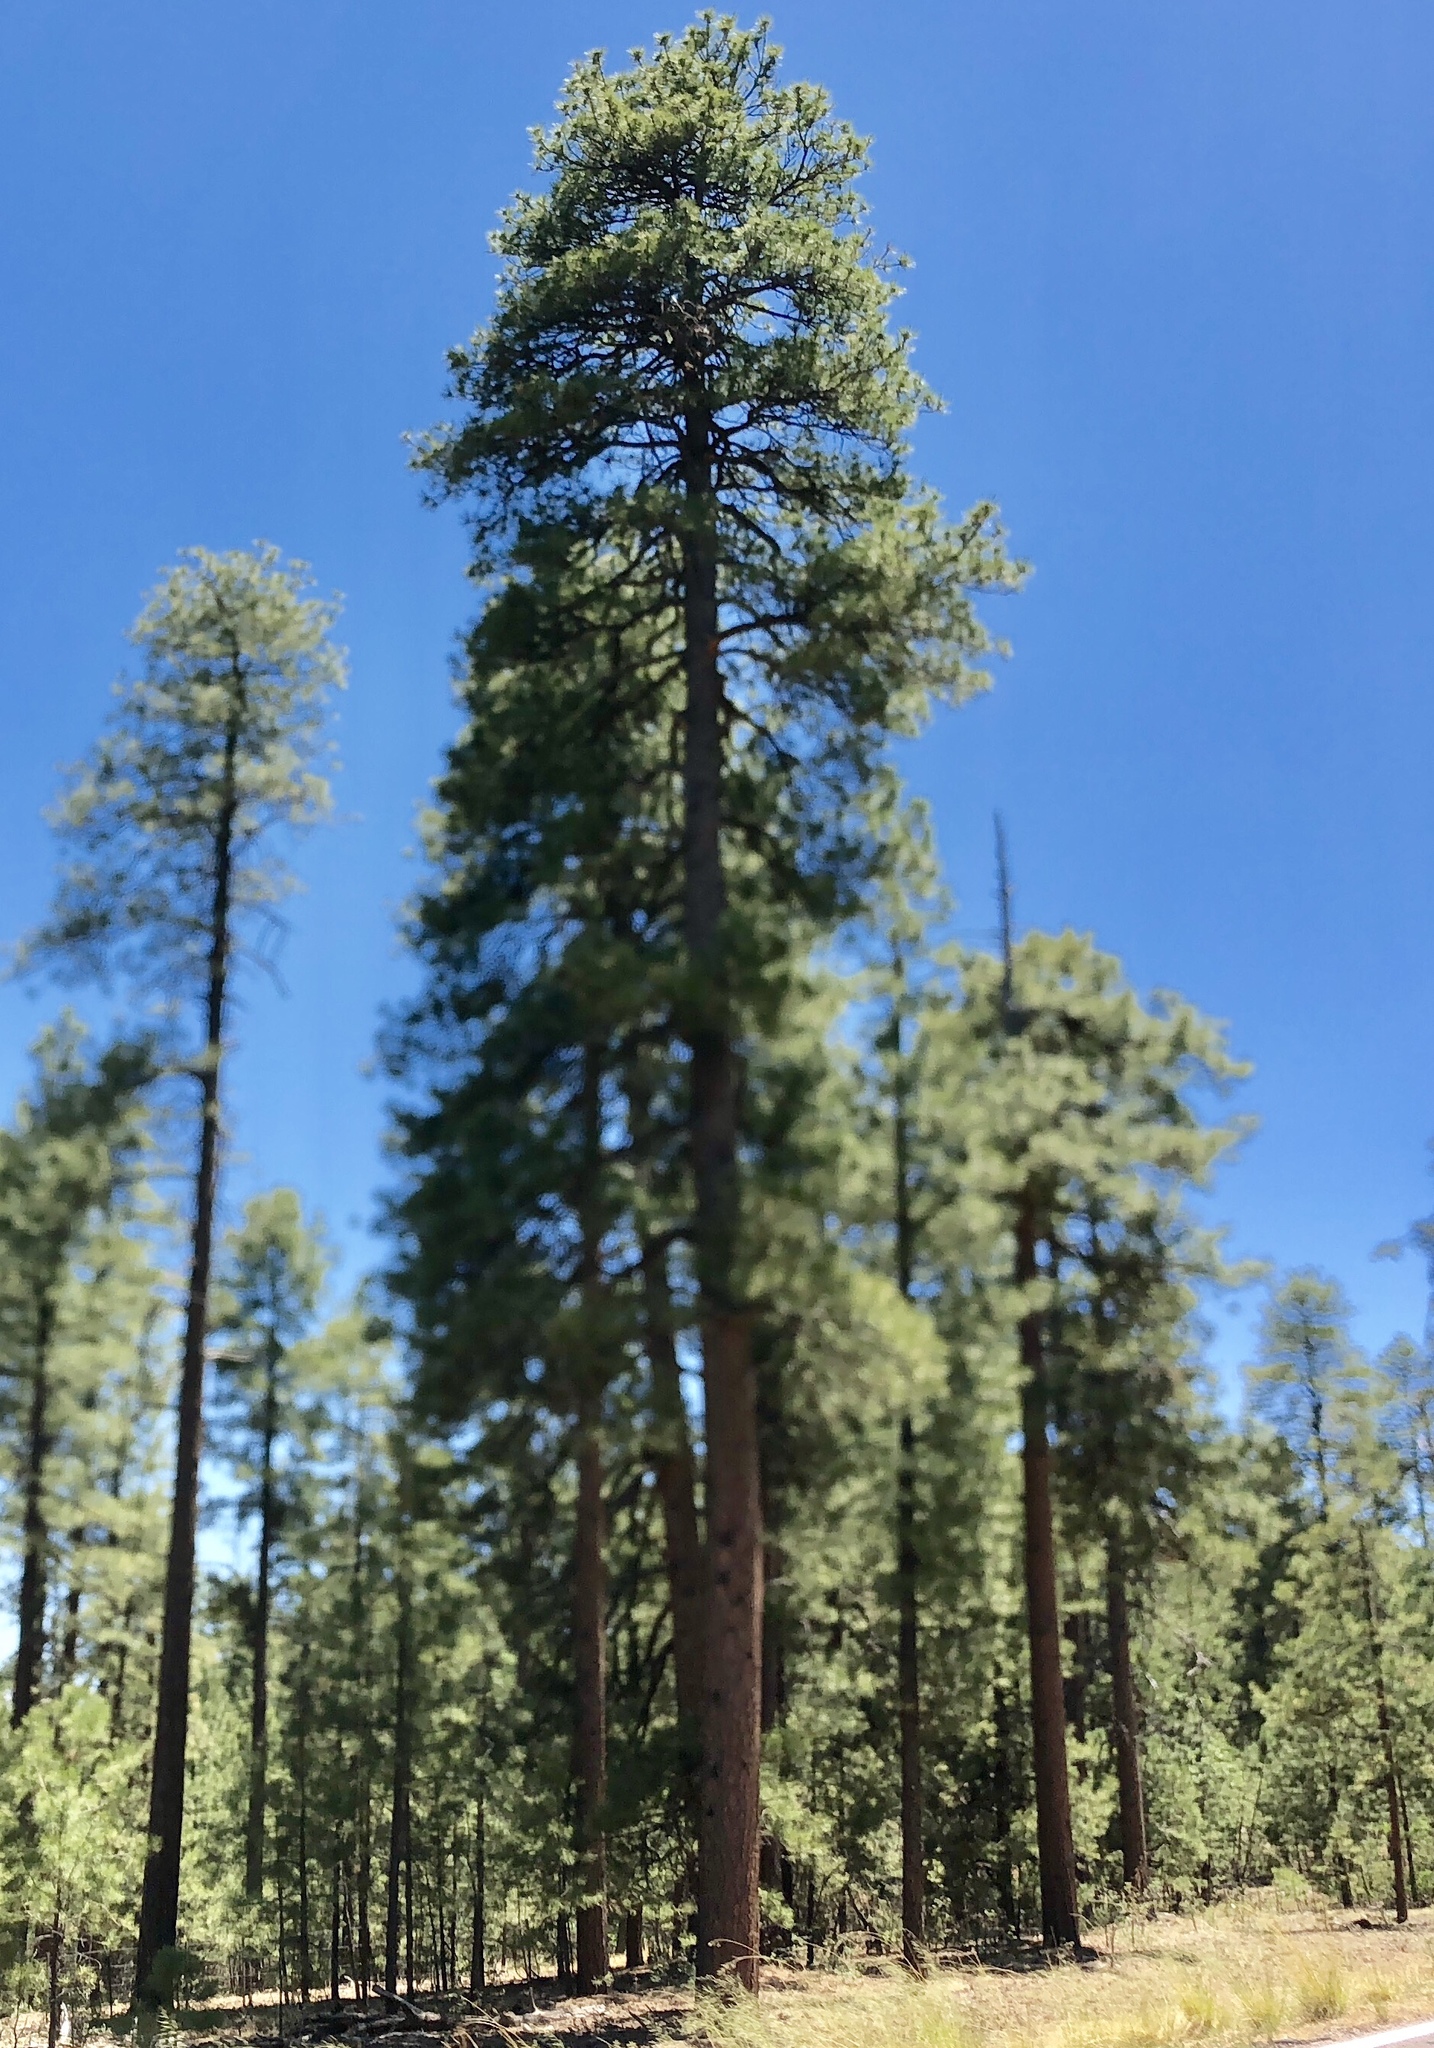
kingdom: Plantae
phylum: Tracheophyta
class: Pinopsida
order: Pinales
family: Pinaceae
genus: Pinus
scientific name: Pinus ponderosa
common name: Western yellow-pine
